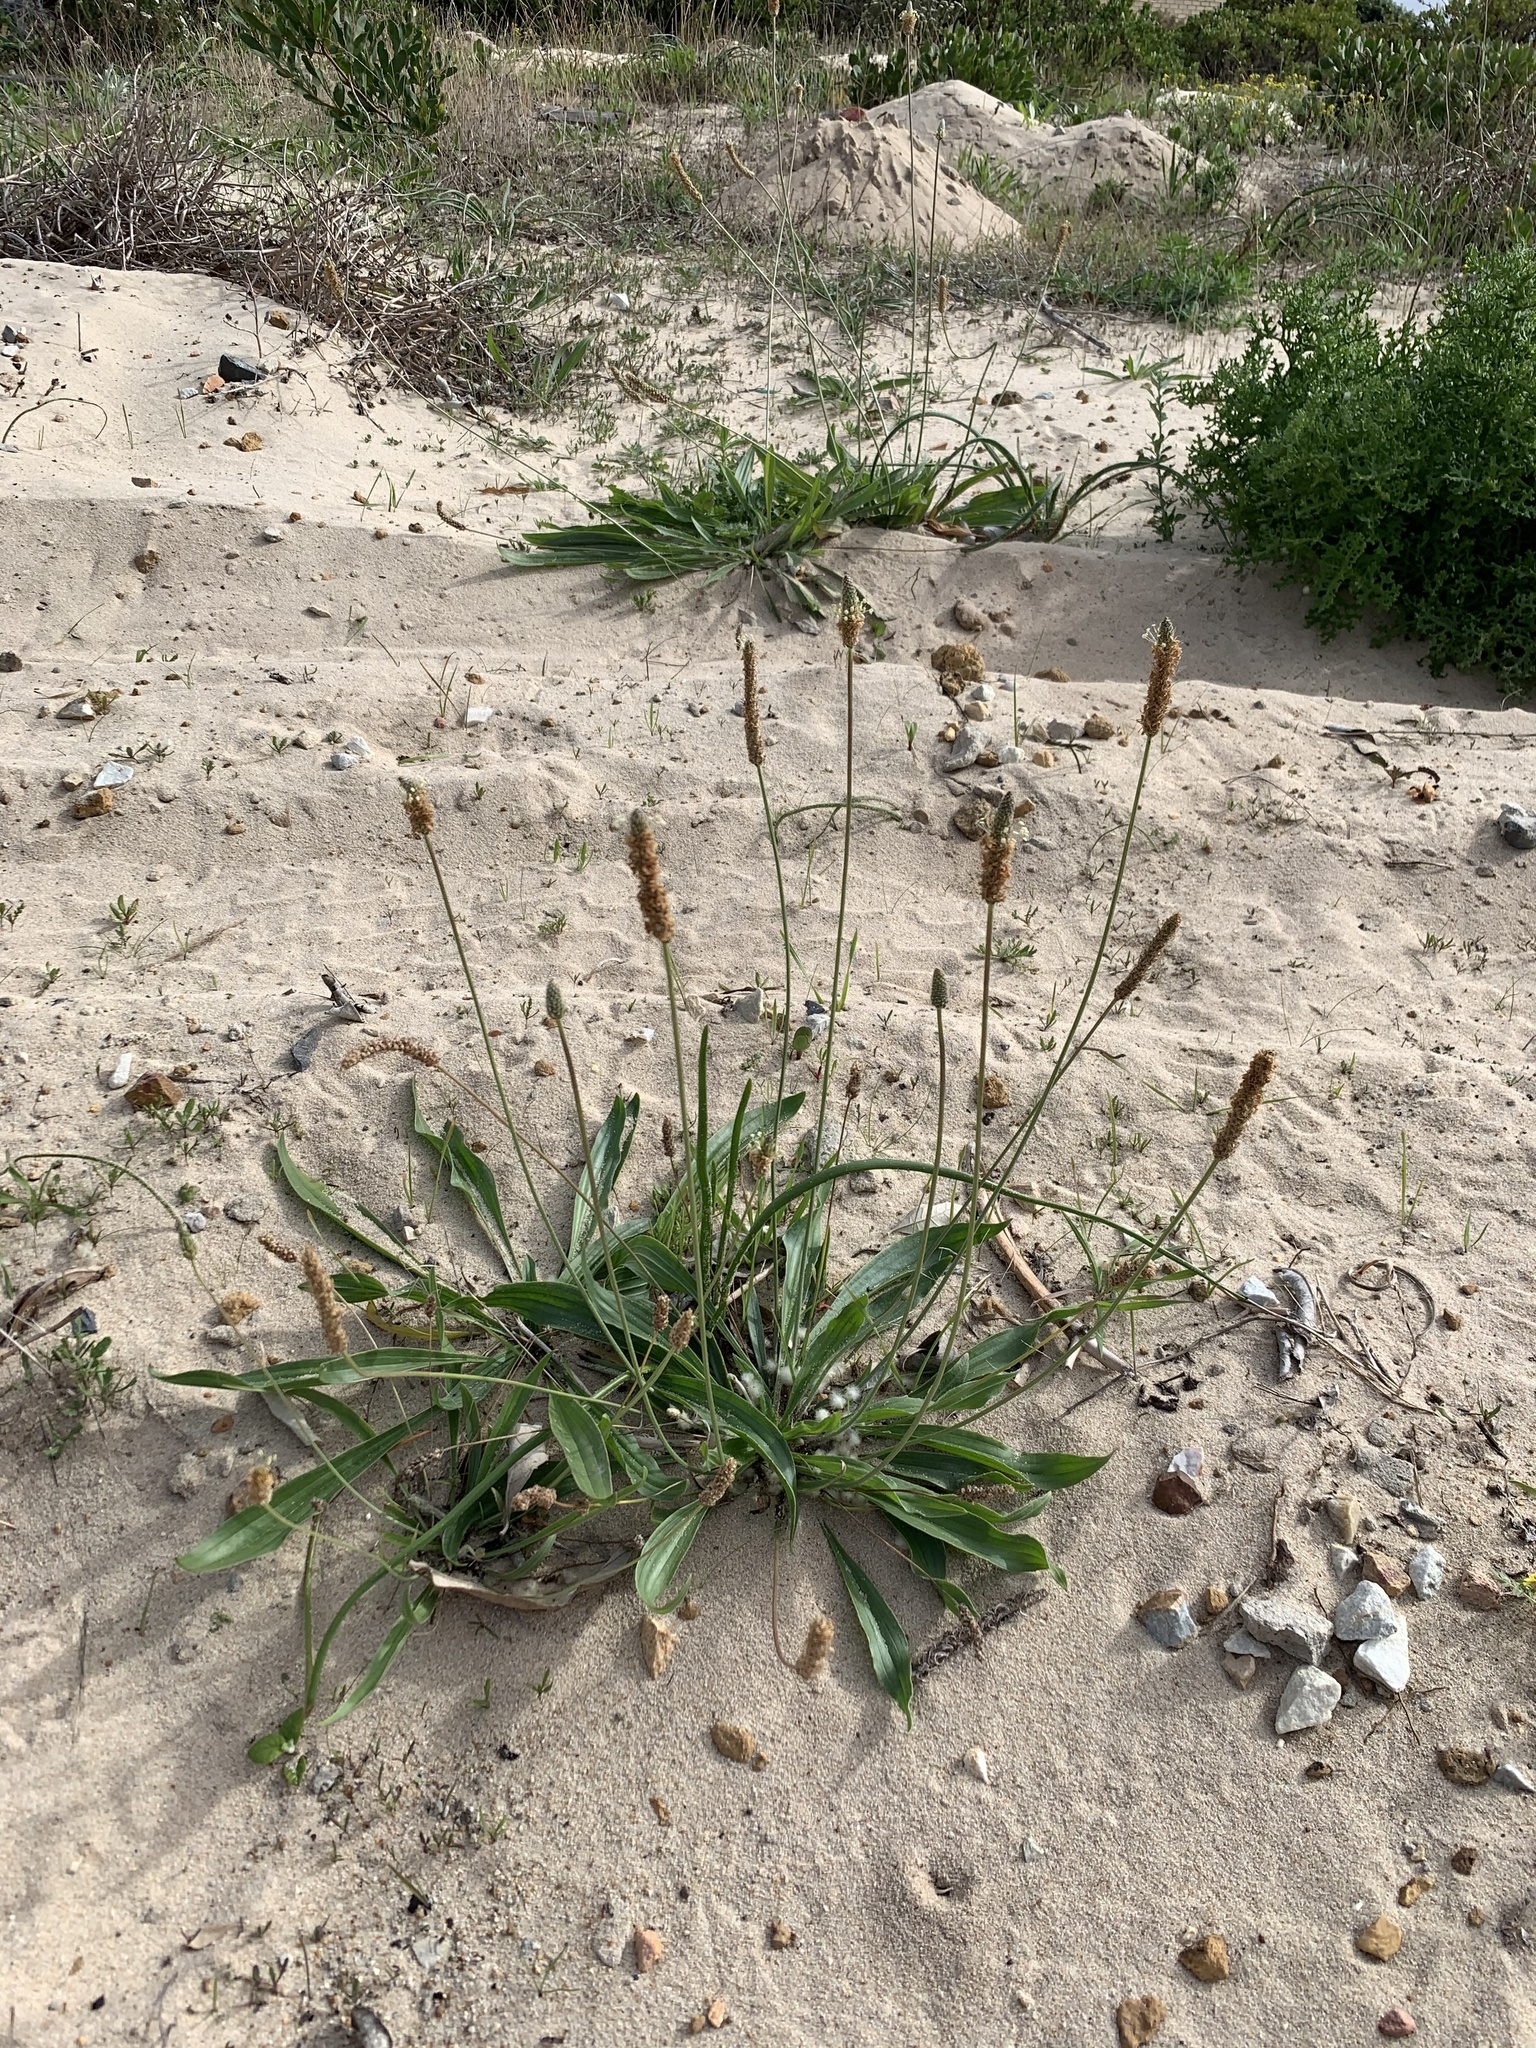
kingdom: Plantae
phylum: Tracheophyta
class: Magnoliopsida
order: Lamiales
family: Plantaginaceae
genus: Plantago
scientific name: Plantago lanceolata
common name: Ribwort plantain
